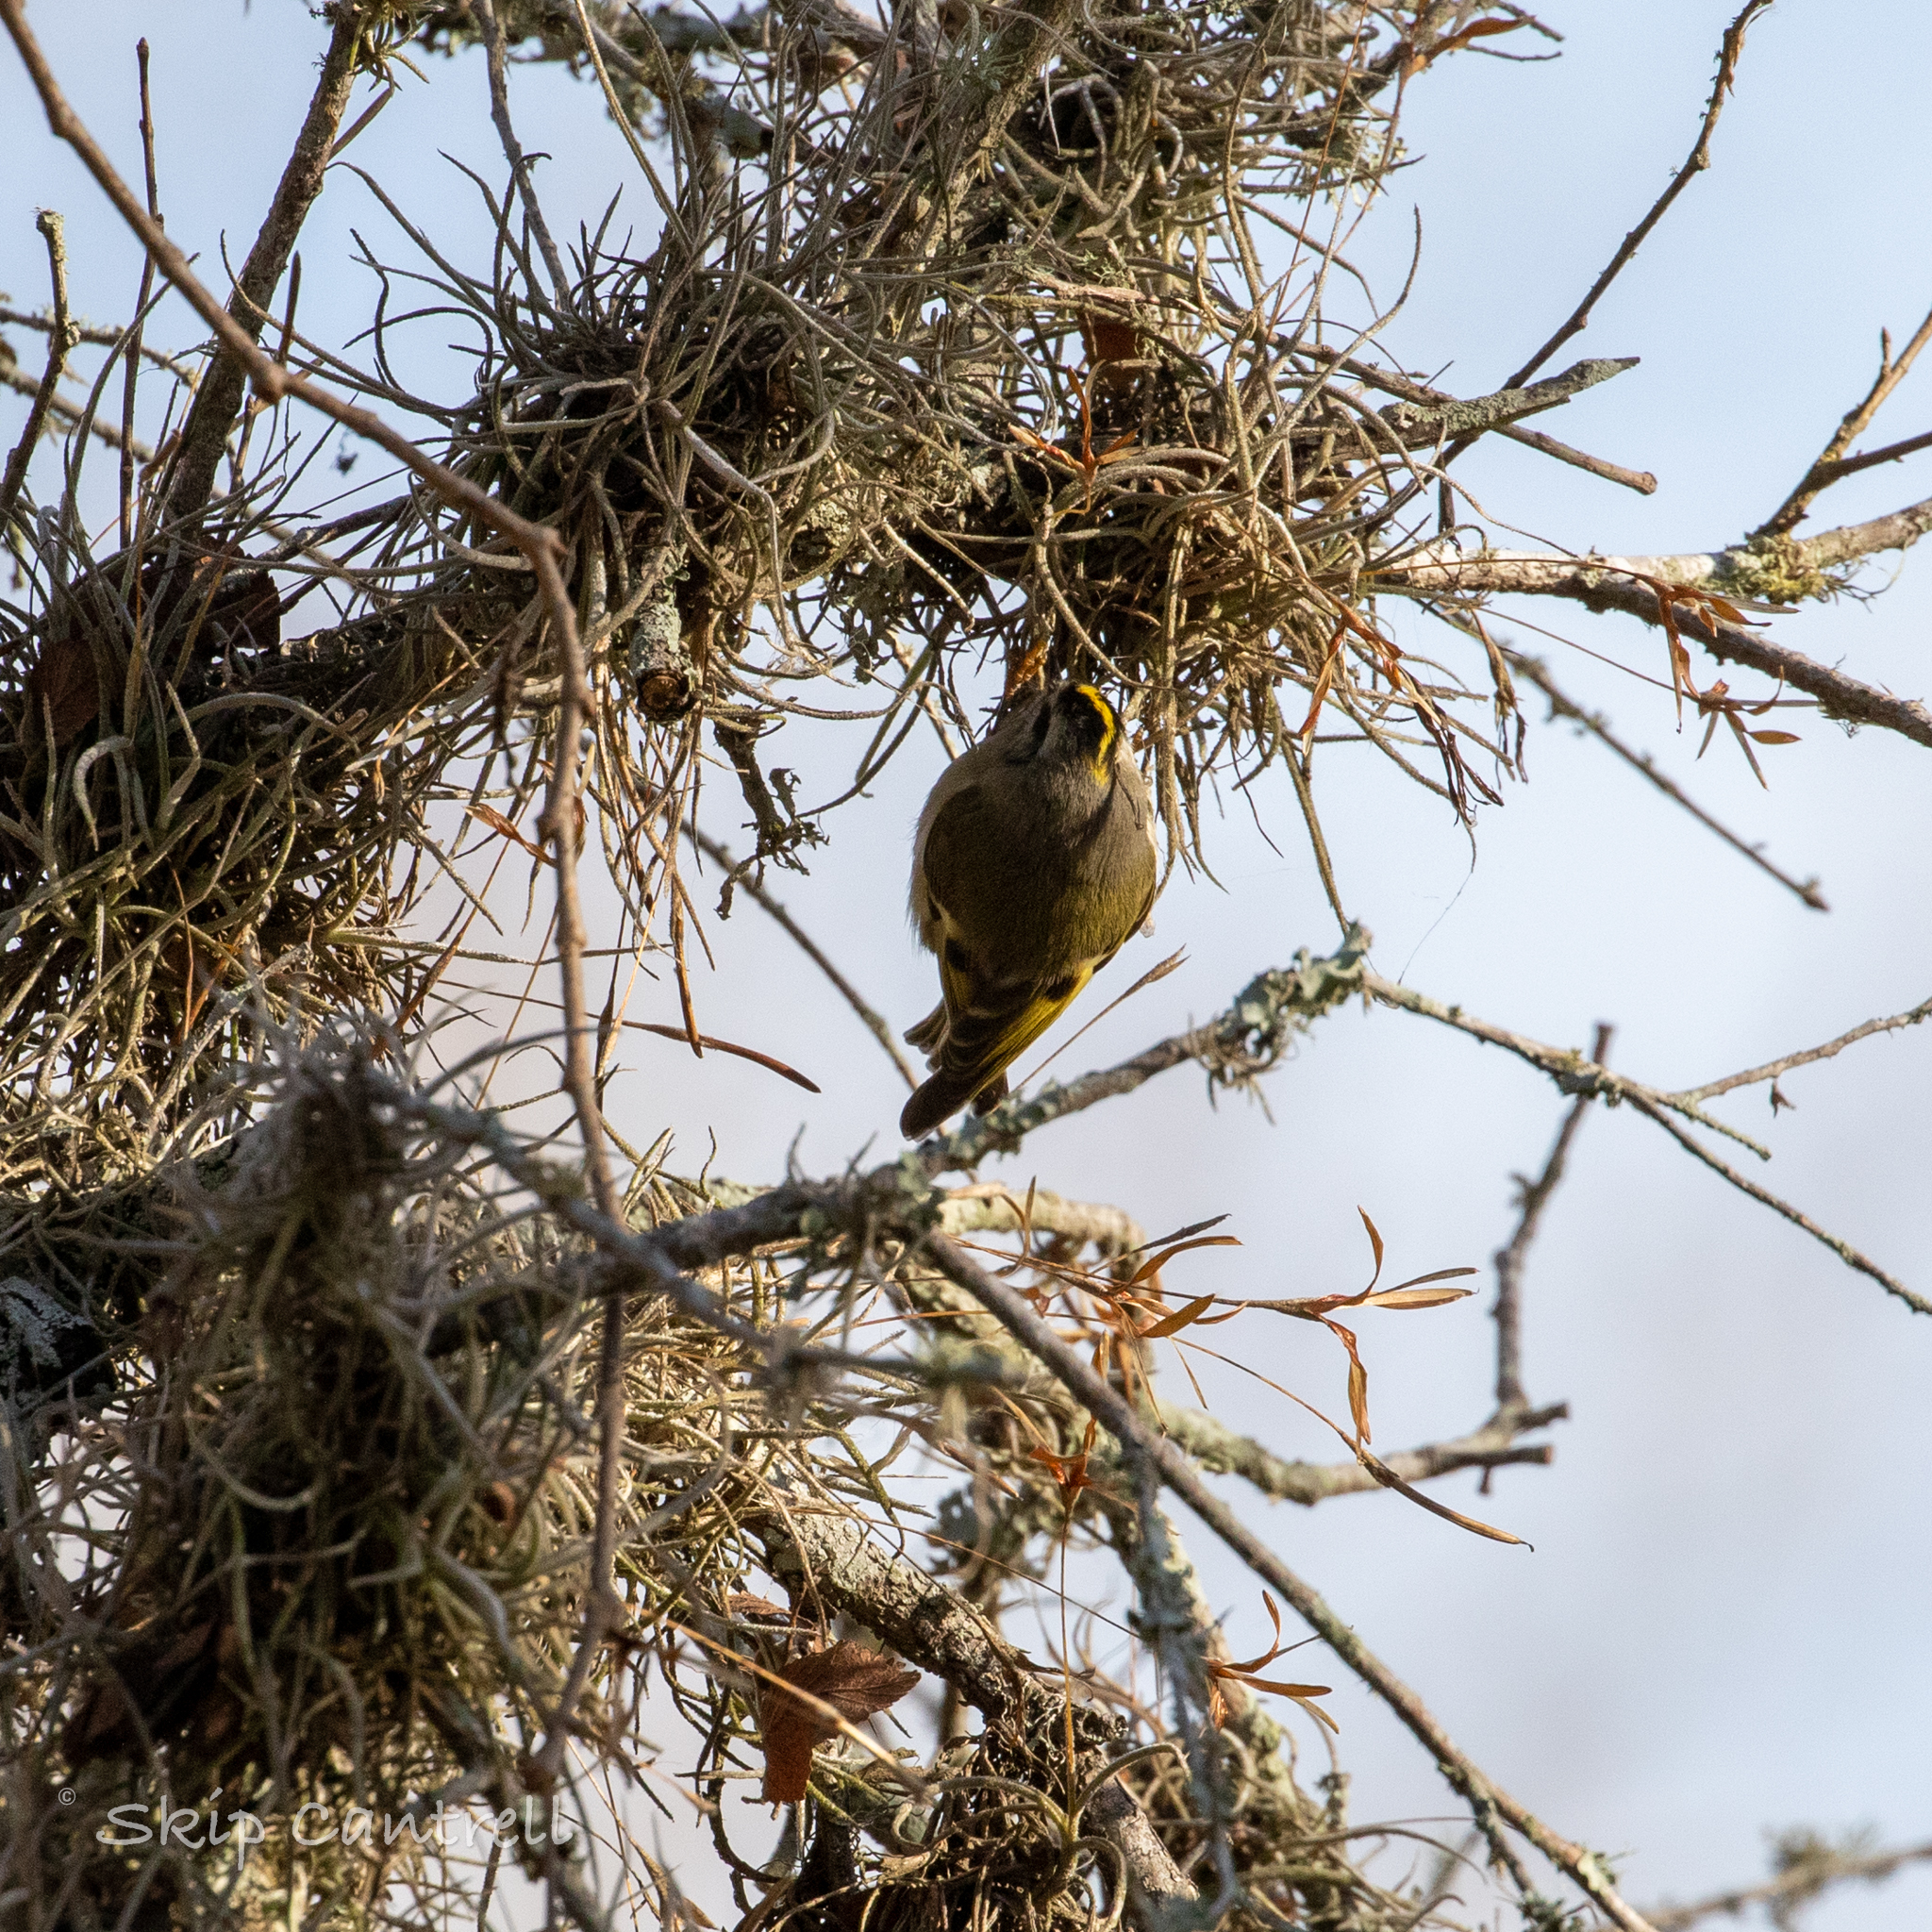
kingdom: Animalia
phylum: Chordata
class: Aves
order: Passeriformes
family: Regulidae
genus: Regulus
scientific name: Regulus satrapa
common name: Golden-crowned kinglet
